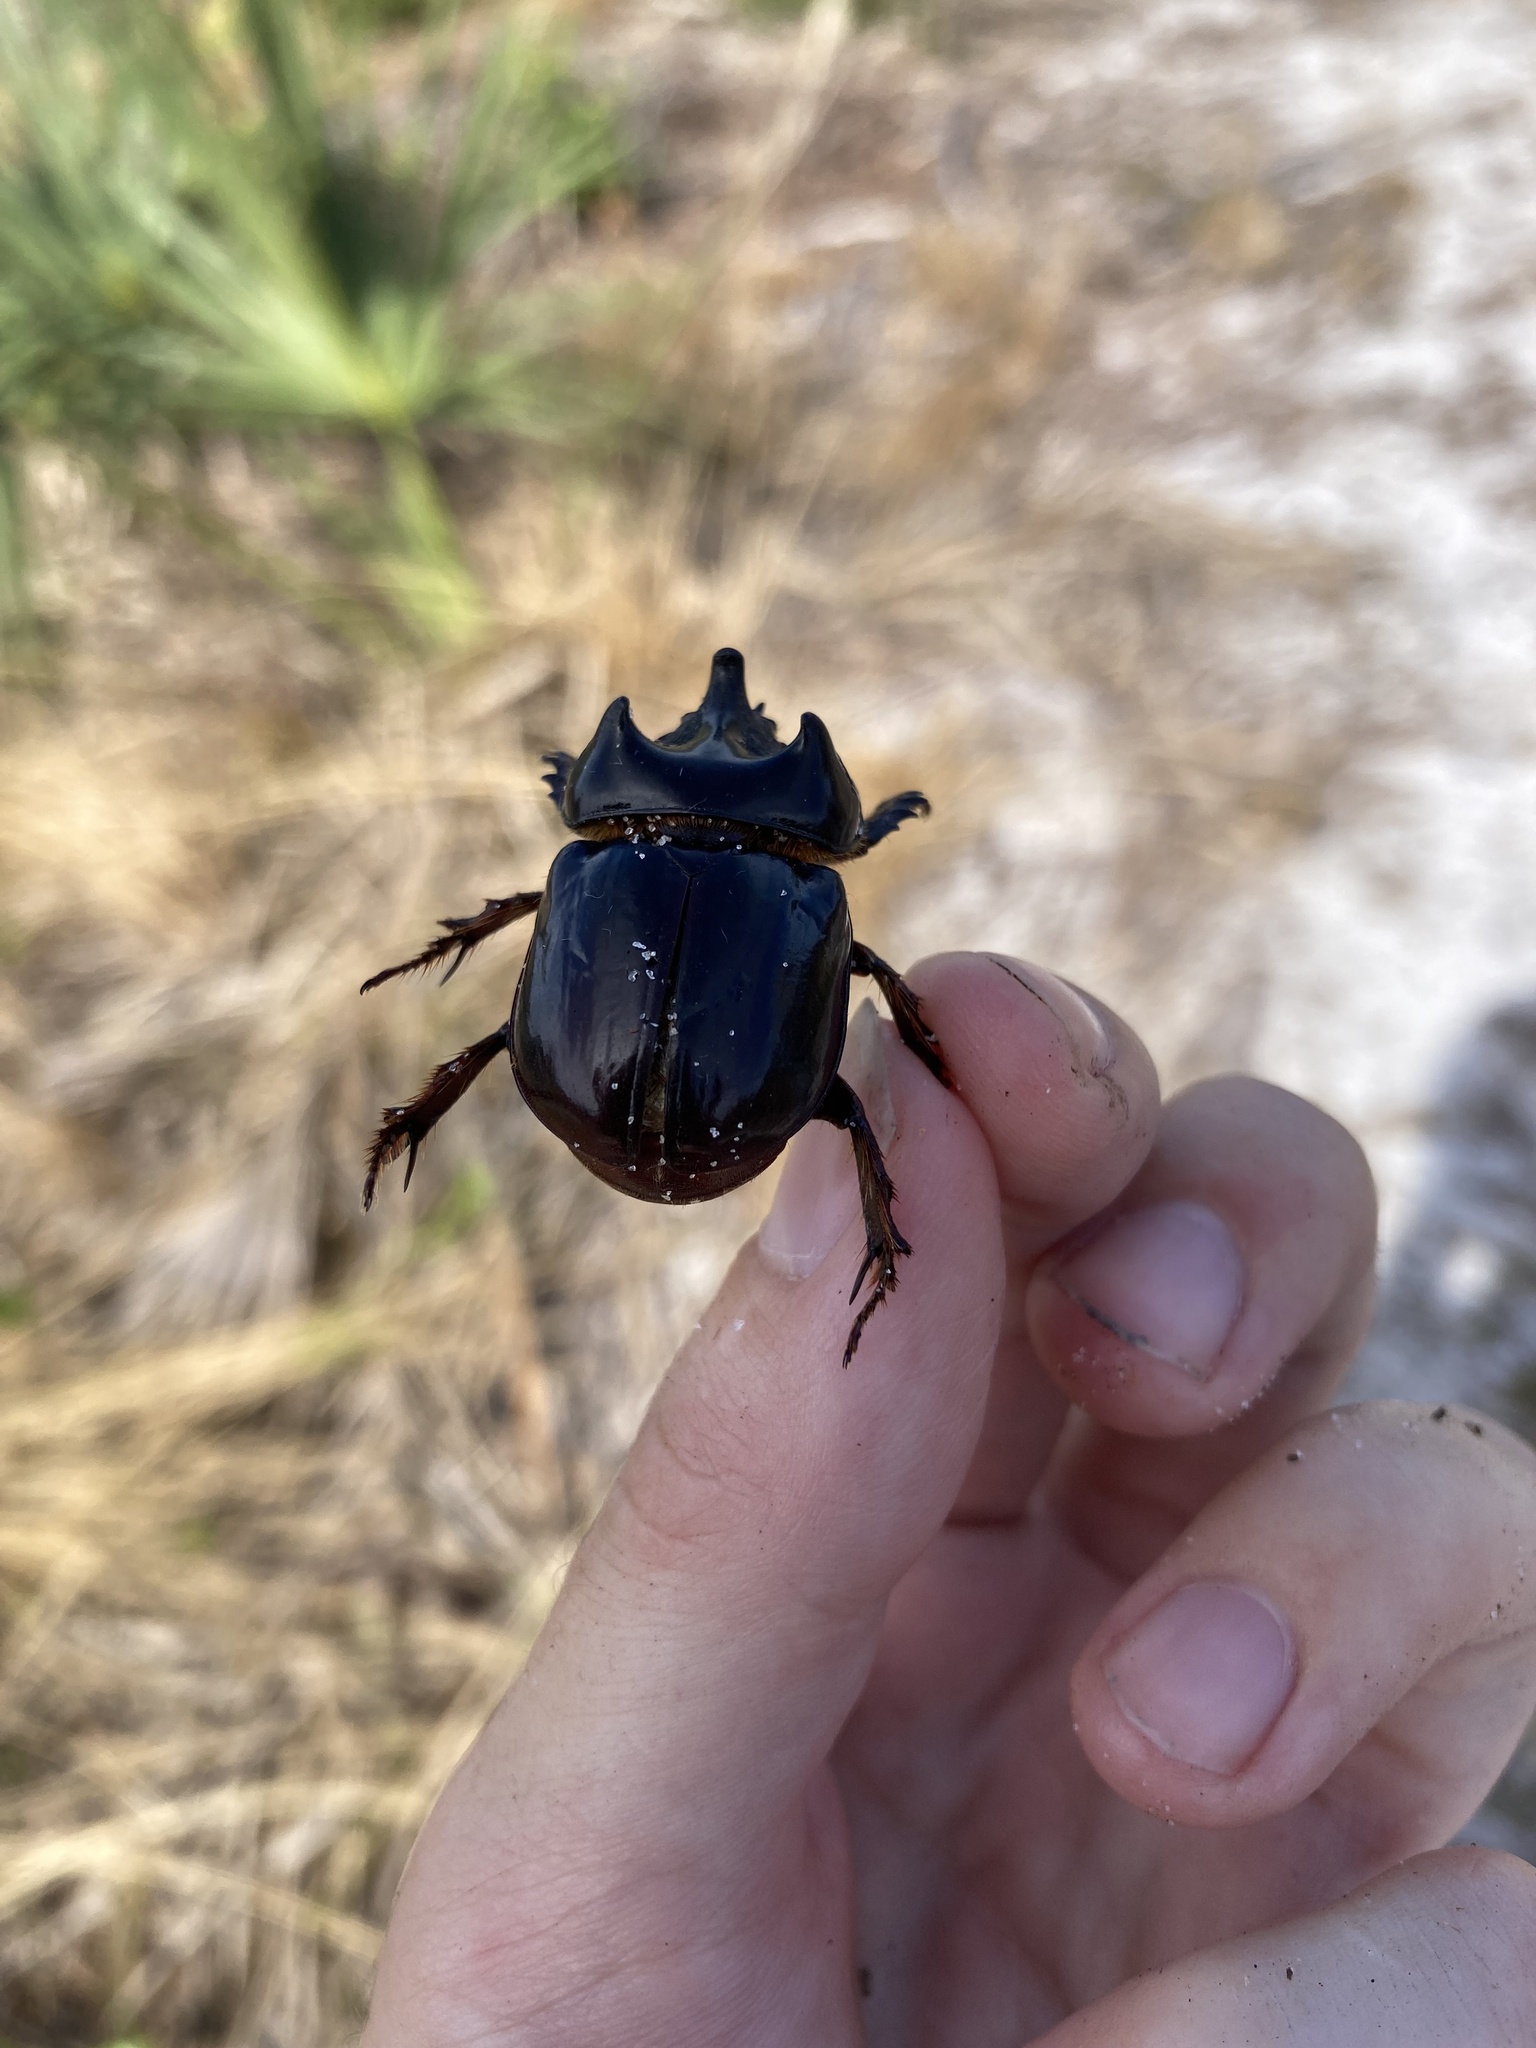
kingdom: Animalia
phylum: Arthropoda
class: Insecta
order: Coleoptera
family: Scarabaeidae
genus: Strategus
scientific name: Strategus antaeus
